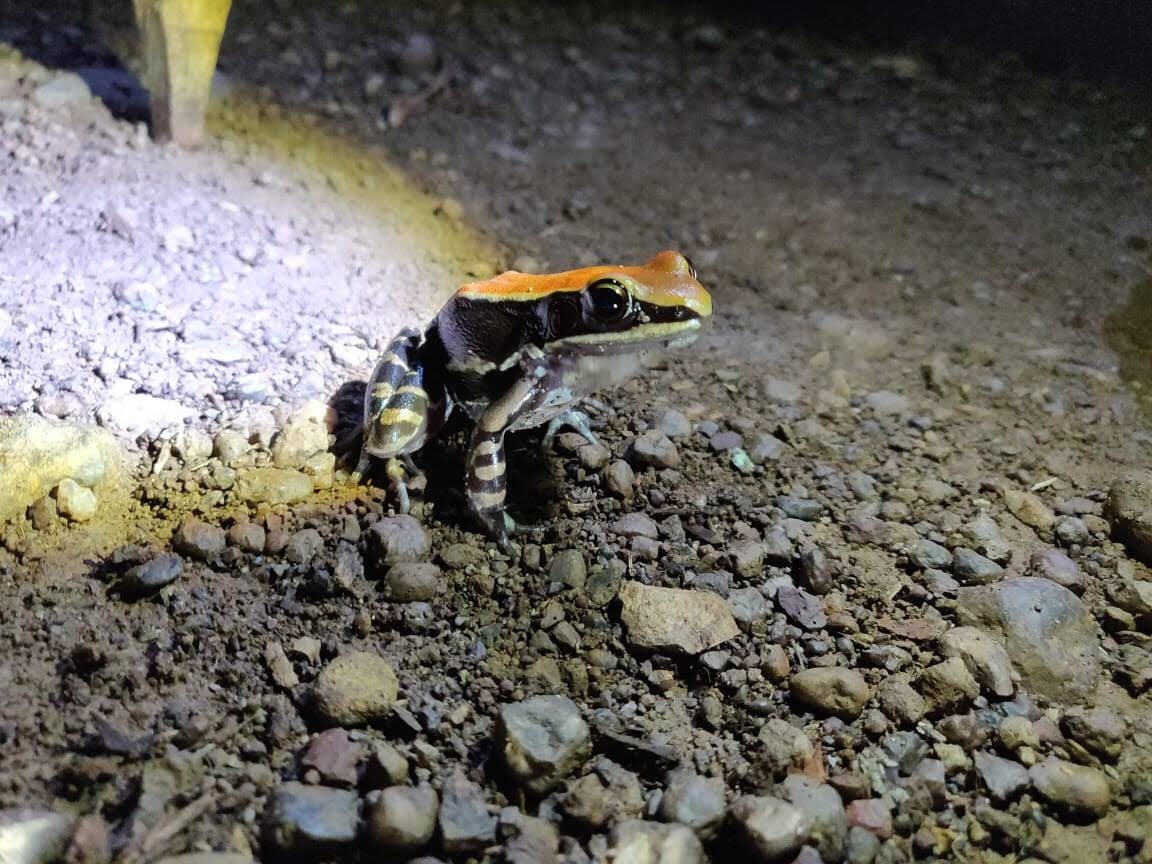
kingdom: Animalia
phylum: Chordata
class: Amphibia
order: Anura
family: Ranidae
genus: Hydrophylax
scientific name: Hydrophylax bahuvistara
